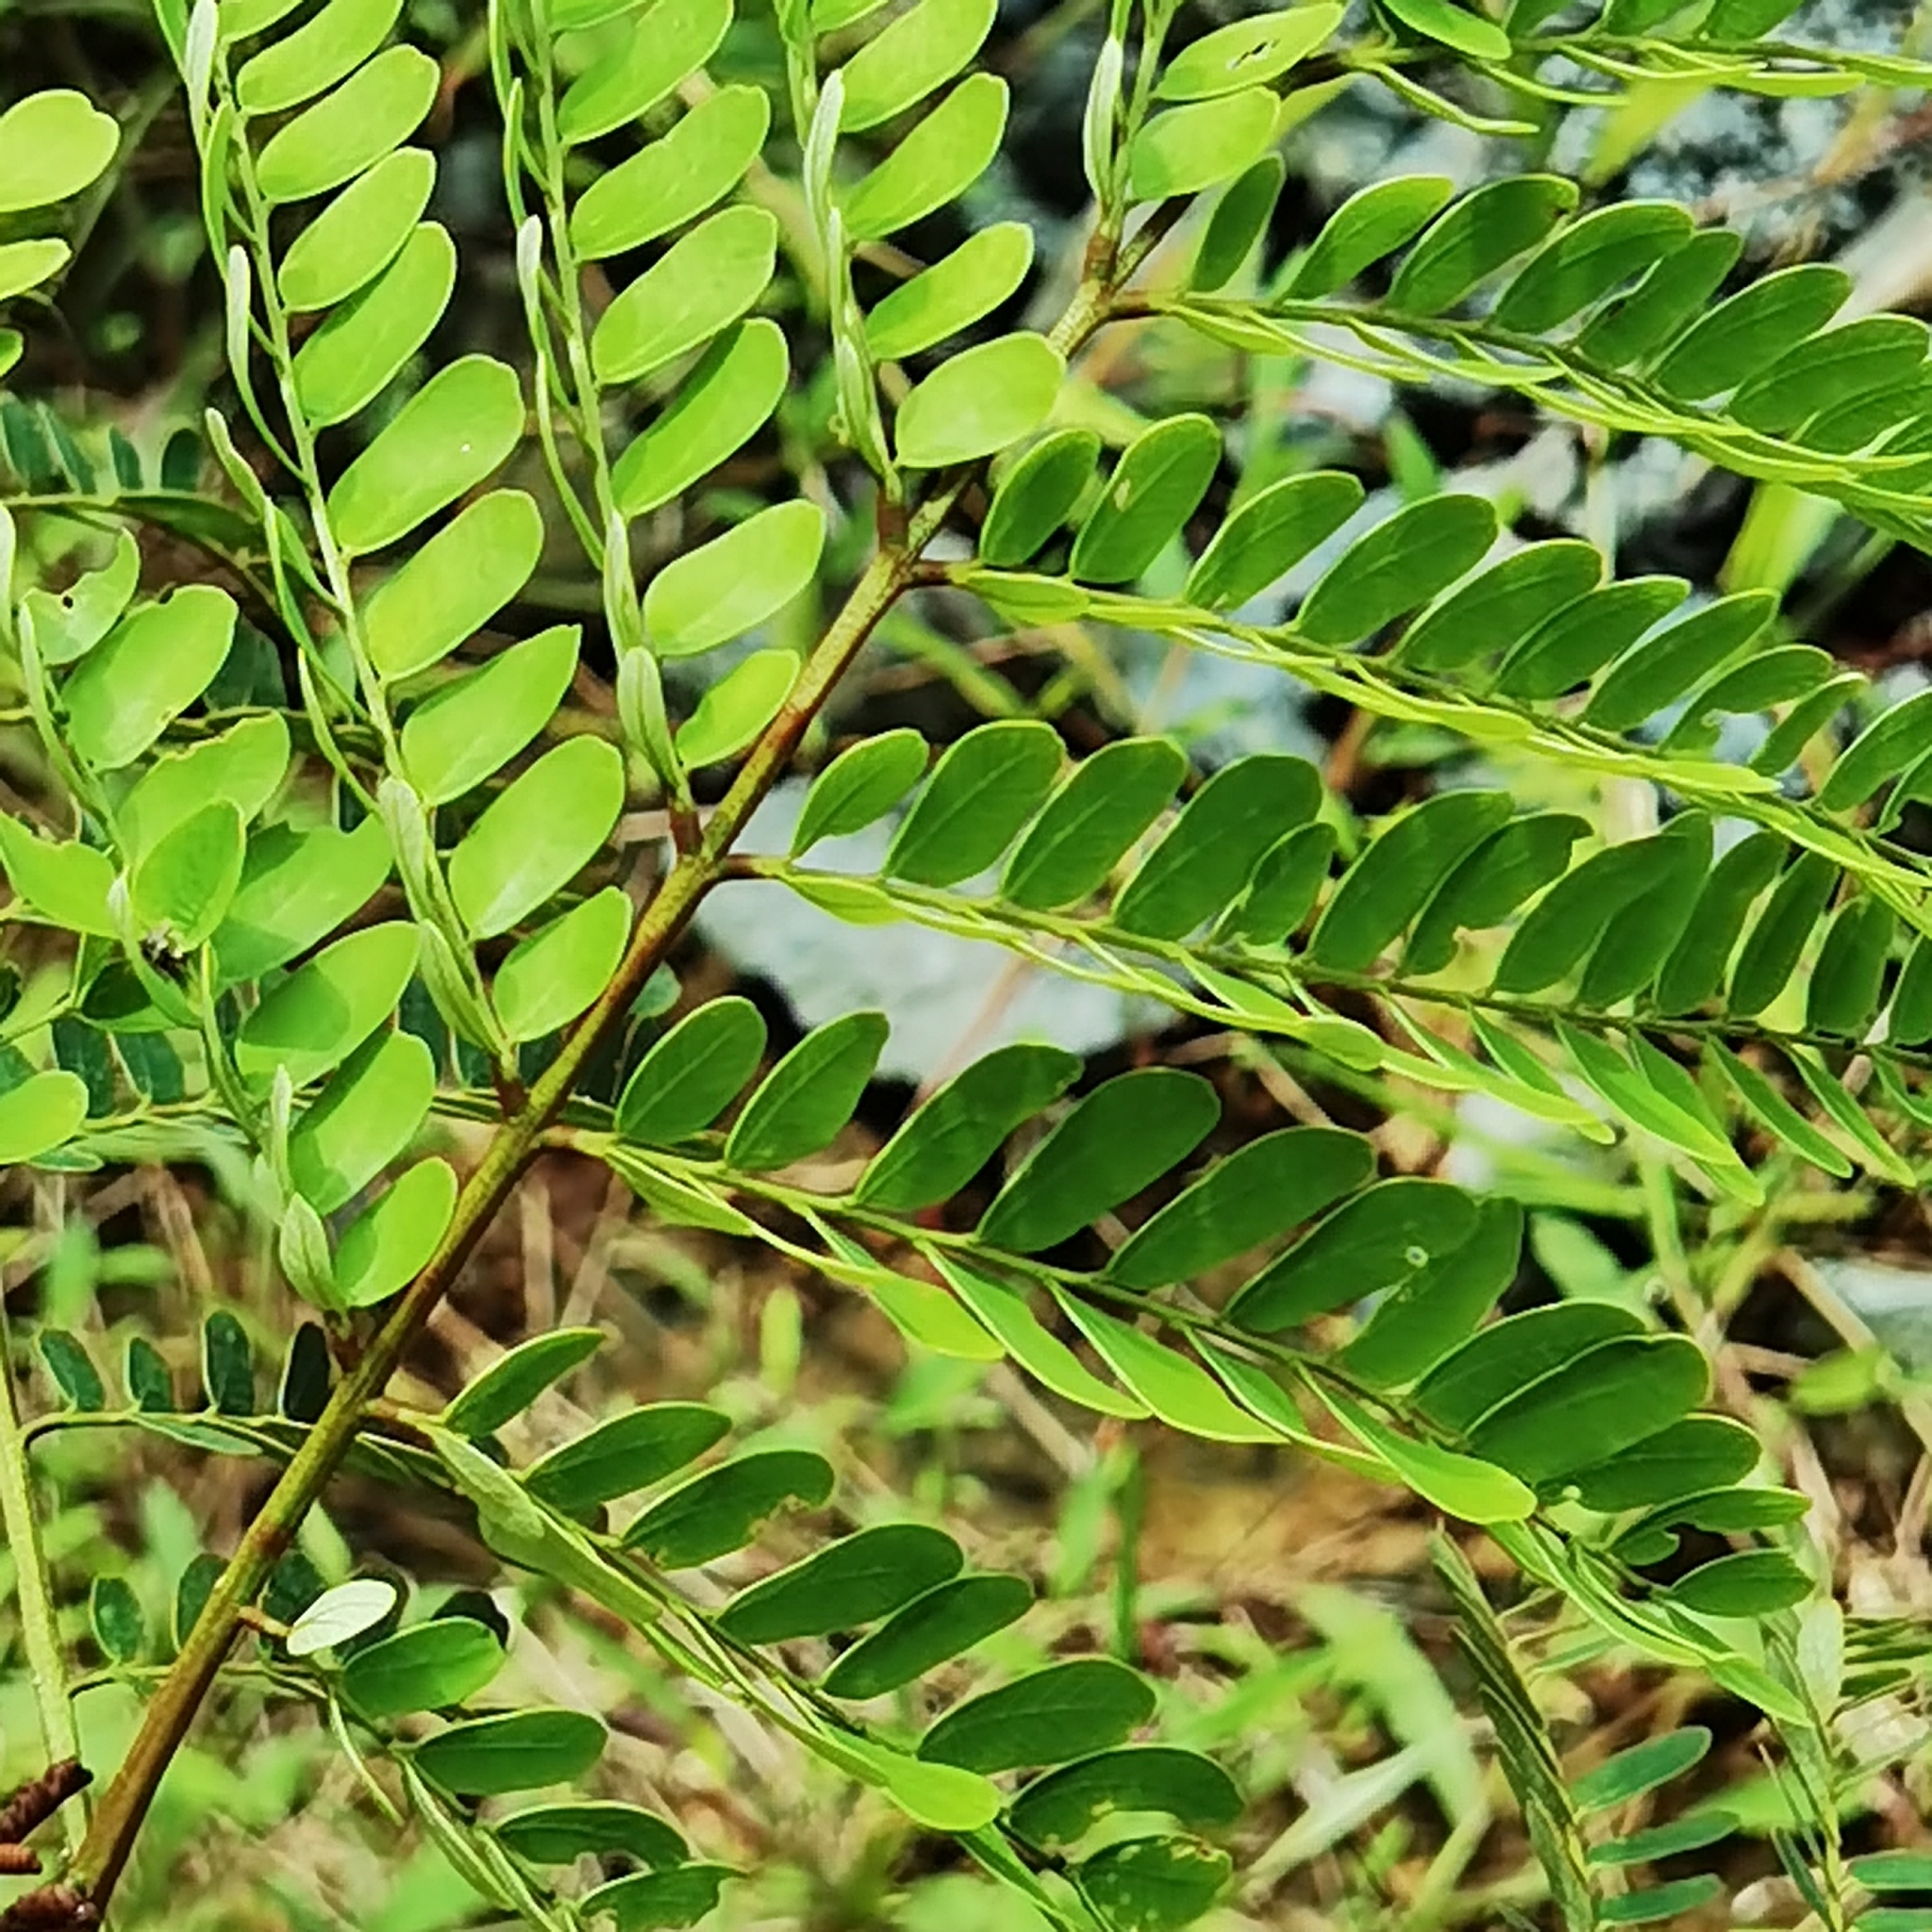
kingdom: Plantae
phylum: Tracheophyta
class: Magnoliopsida
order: Fabales
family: Fabaceae
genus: Stryphnodendron
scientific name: Stryphnodendron microstachyum
